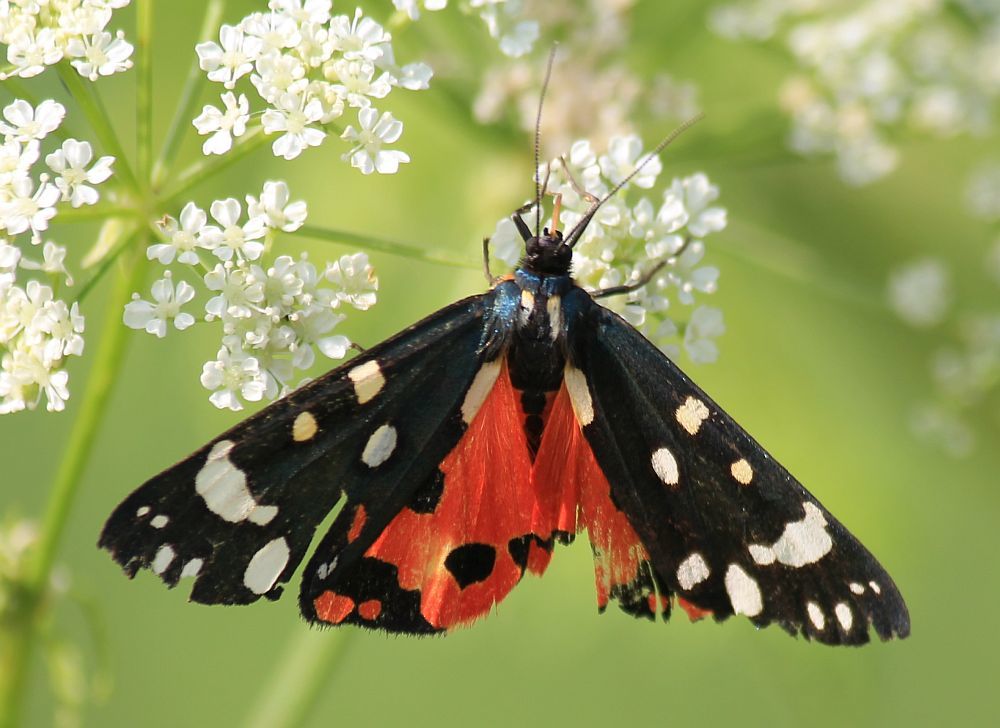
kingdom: Animalia
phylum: Arthropoda
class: Insecta
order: Lepidoptera
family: Erebidae
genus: Callimorpha
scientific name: Callimorpha dominula
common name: Scarlet tiger
